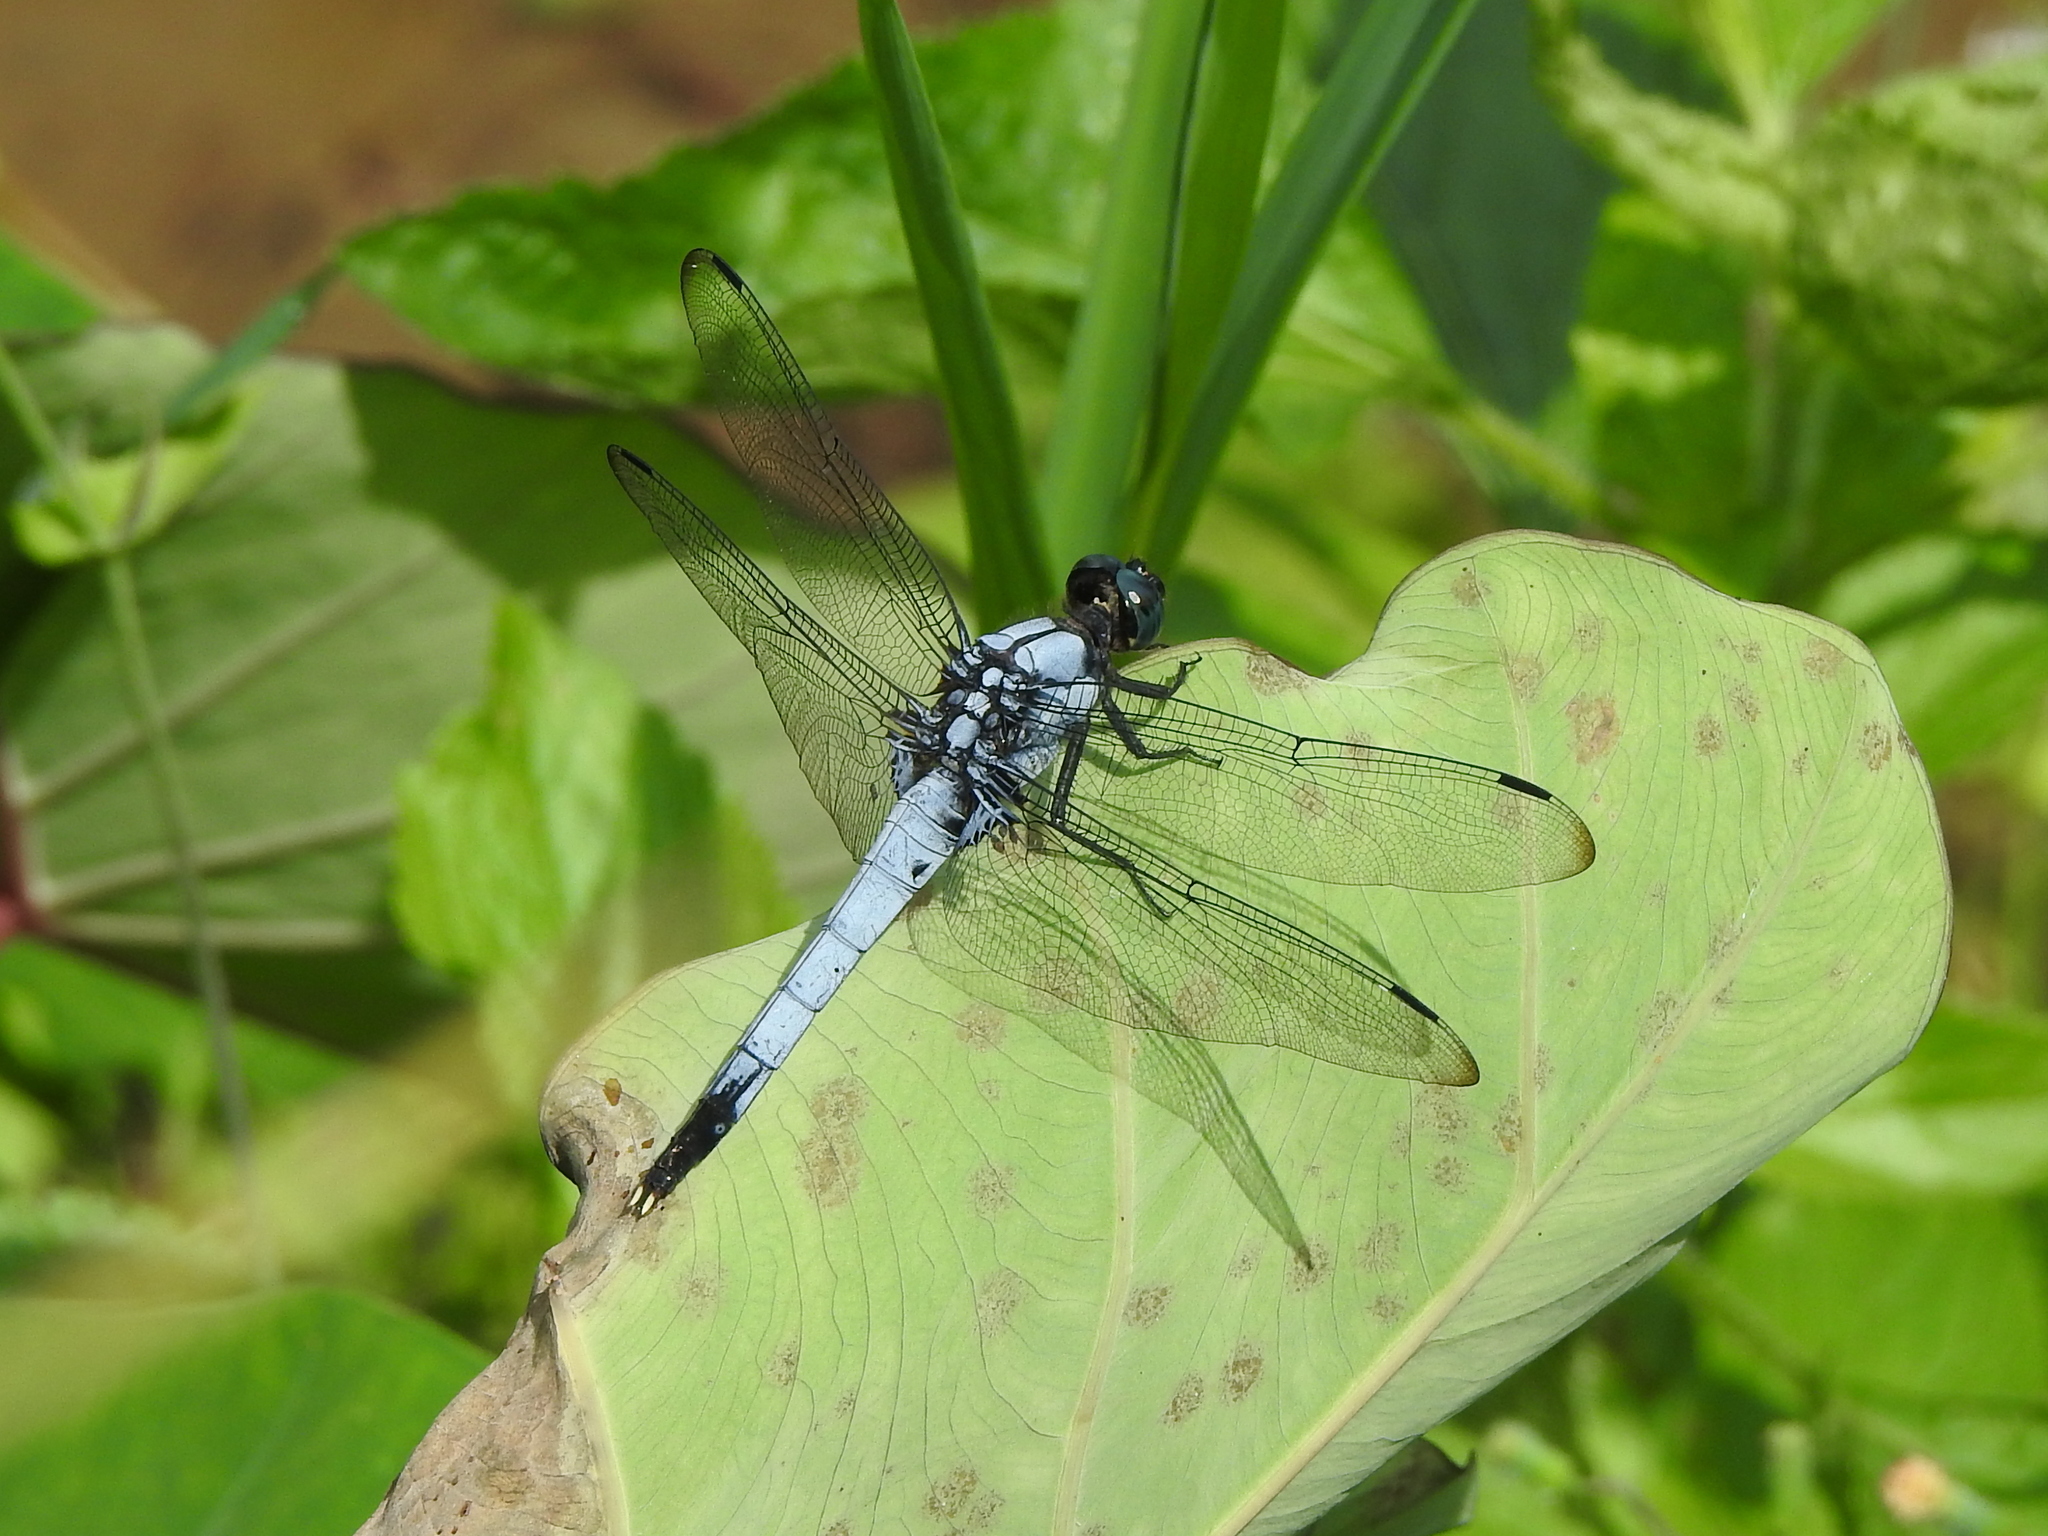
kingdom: Animalia
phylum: Arthropoda
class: Insecta
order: Odonata
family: Libellulidae
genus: Orthetrum
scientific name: Orthetrum melania
